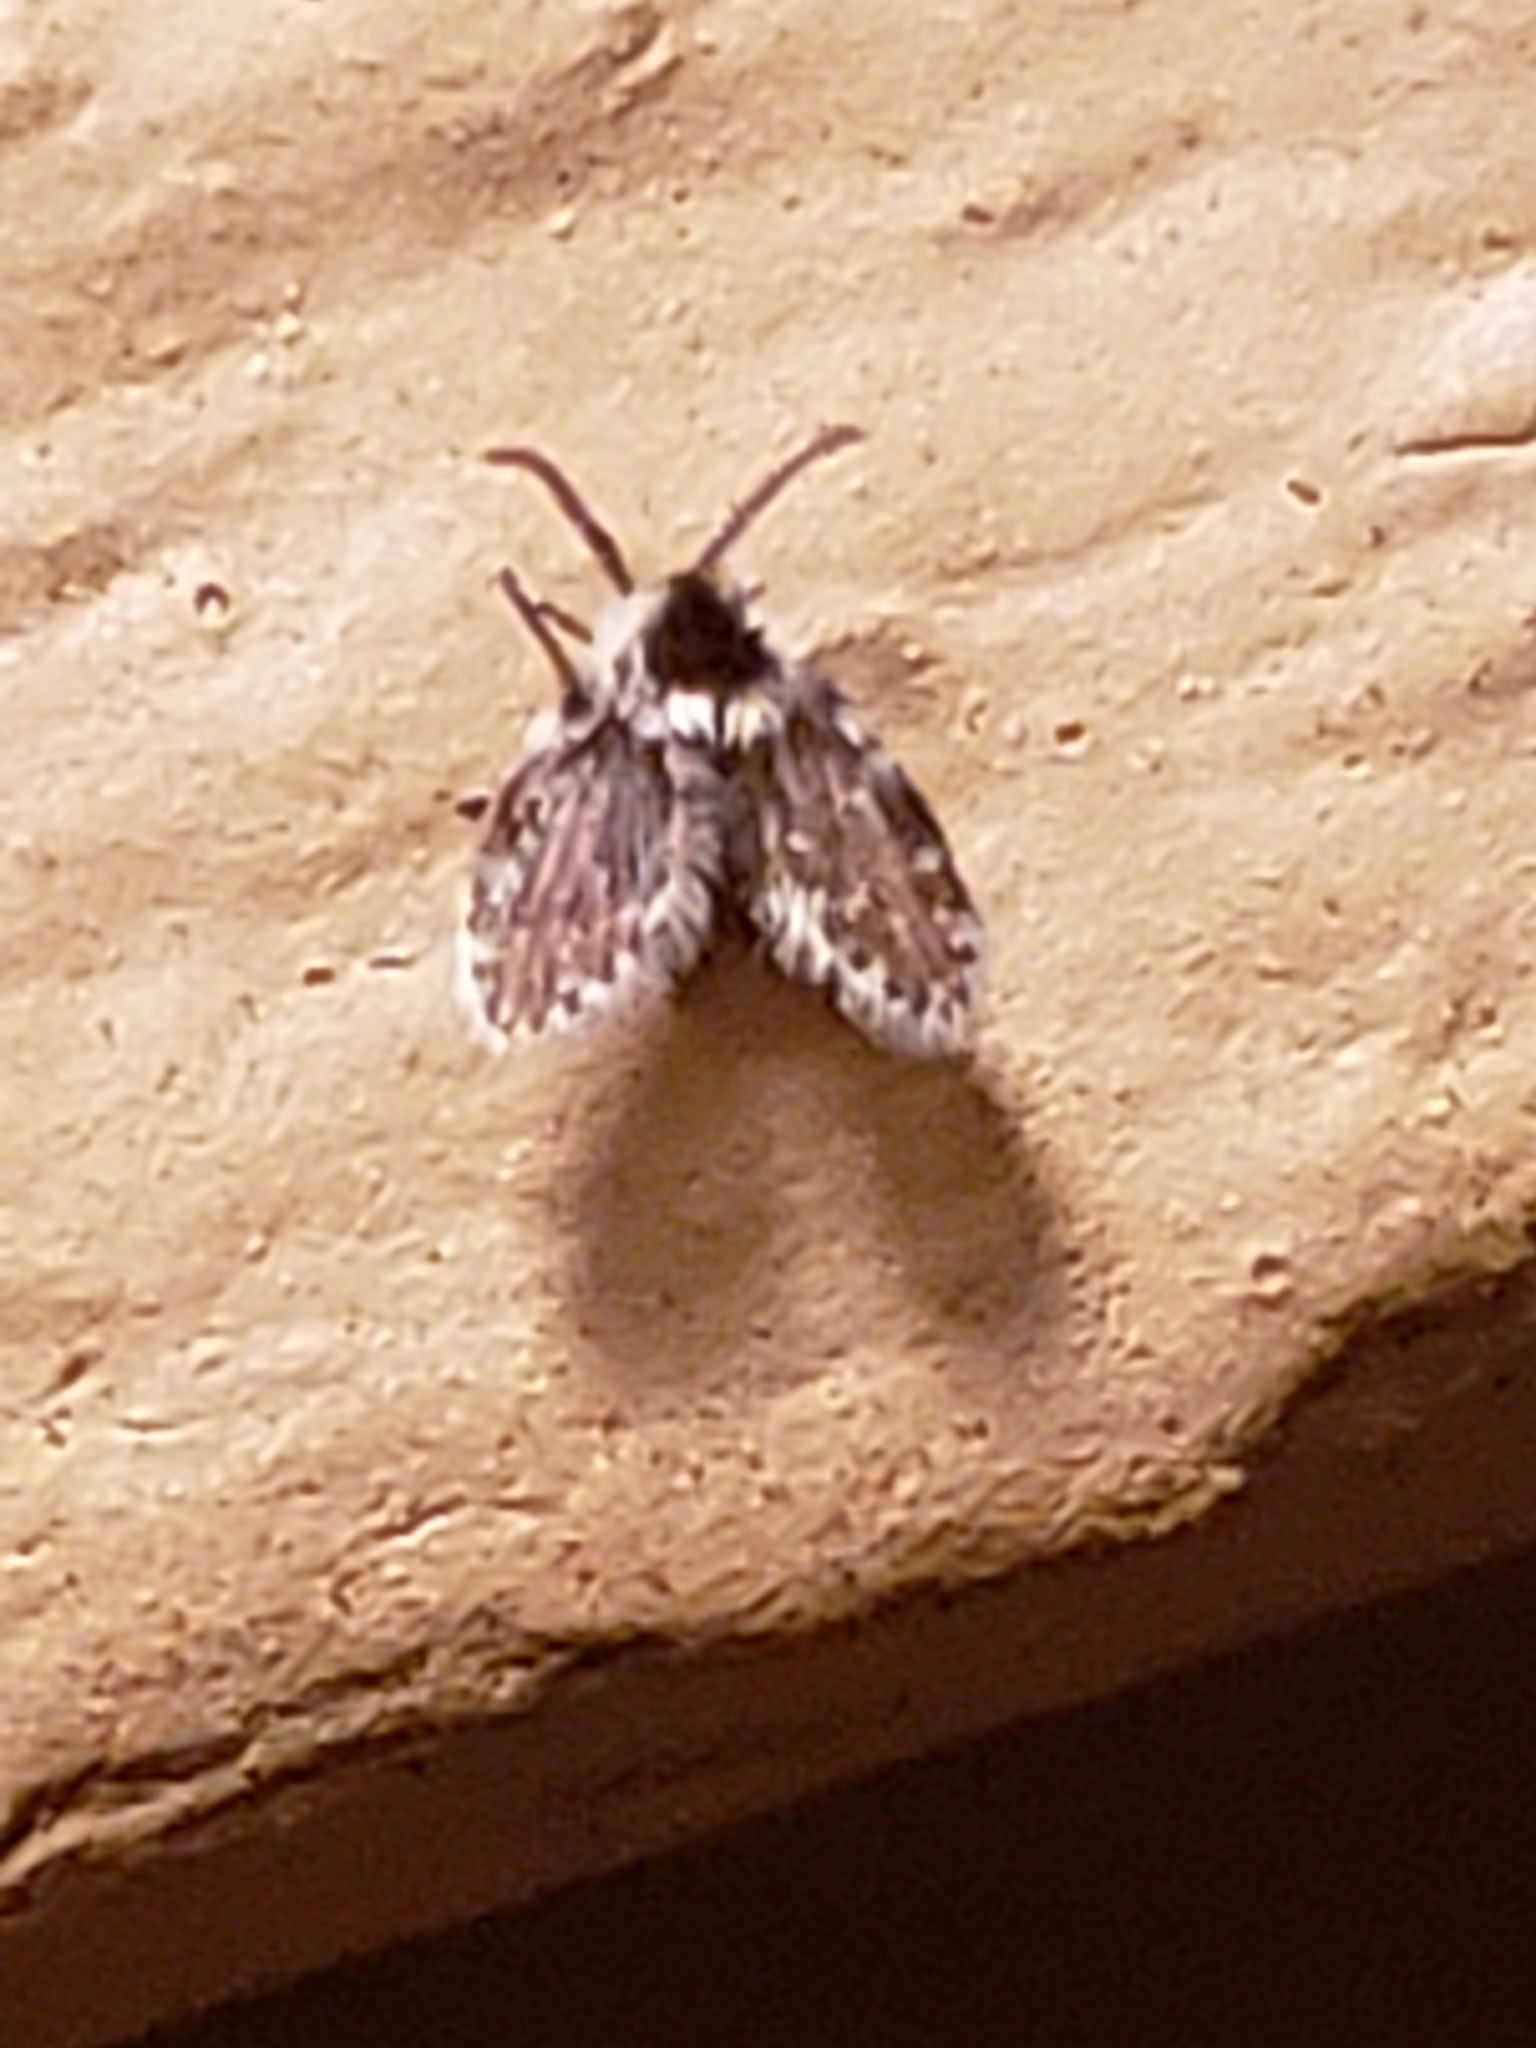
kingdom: Animalia
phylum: Arthropoda
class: Insecta
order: Diptera
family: Psychodidae
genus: Lepiseodina
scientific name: Lepiseodina
